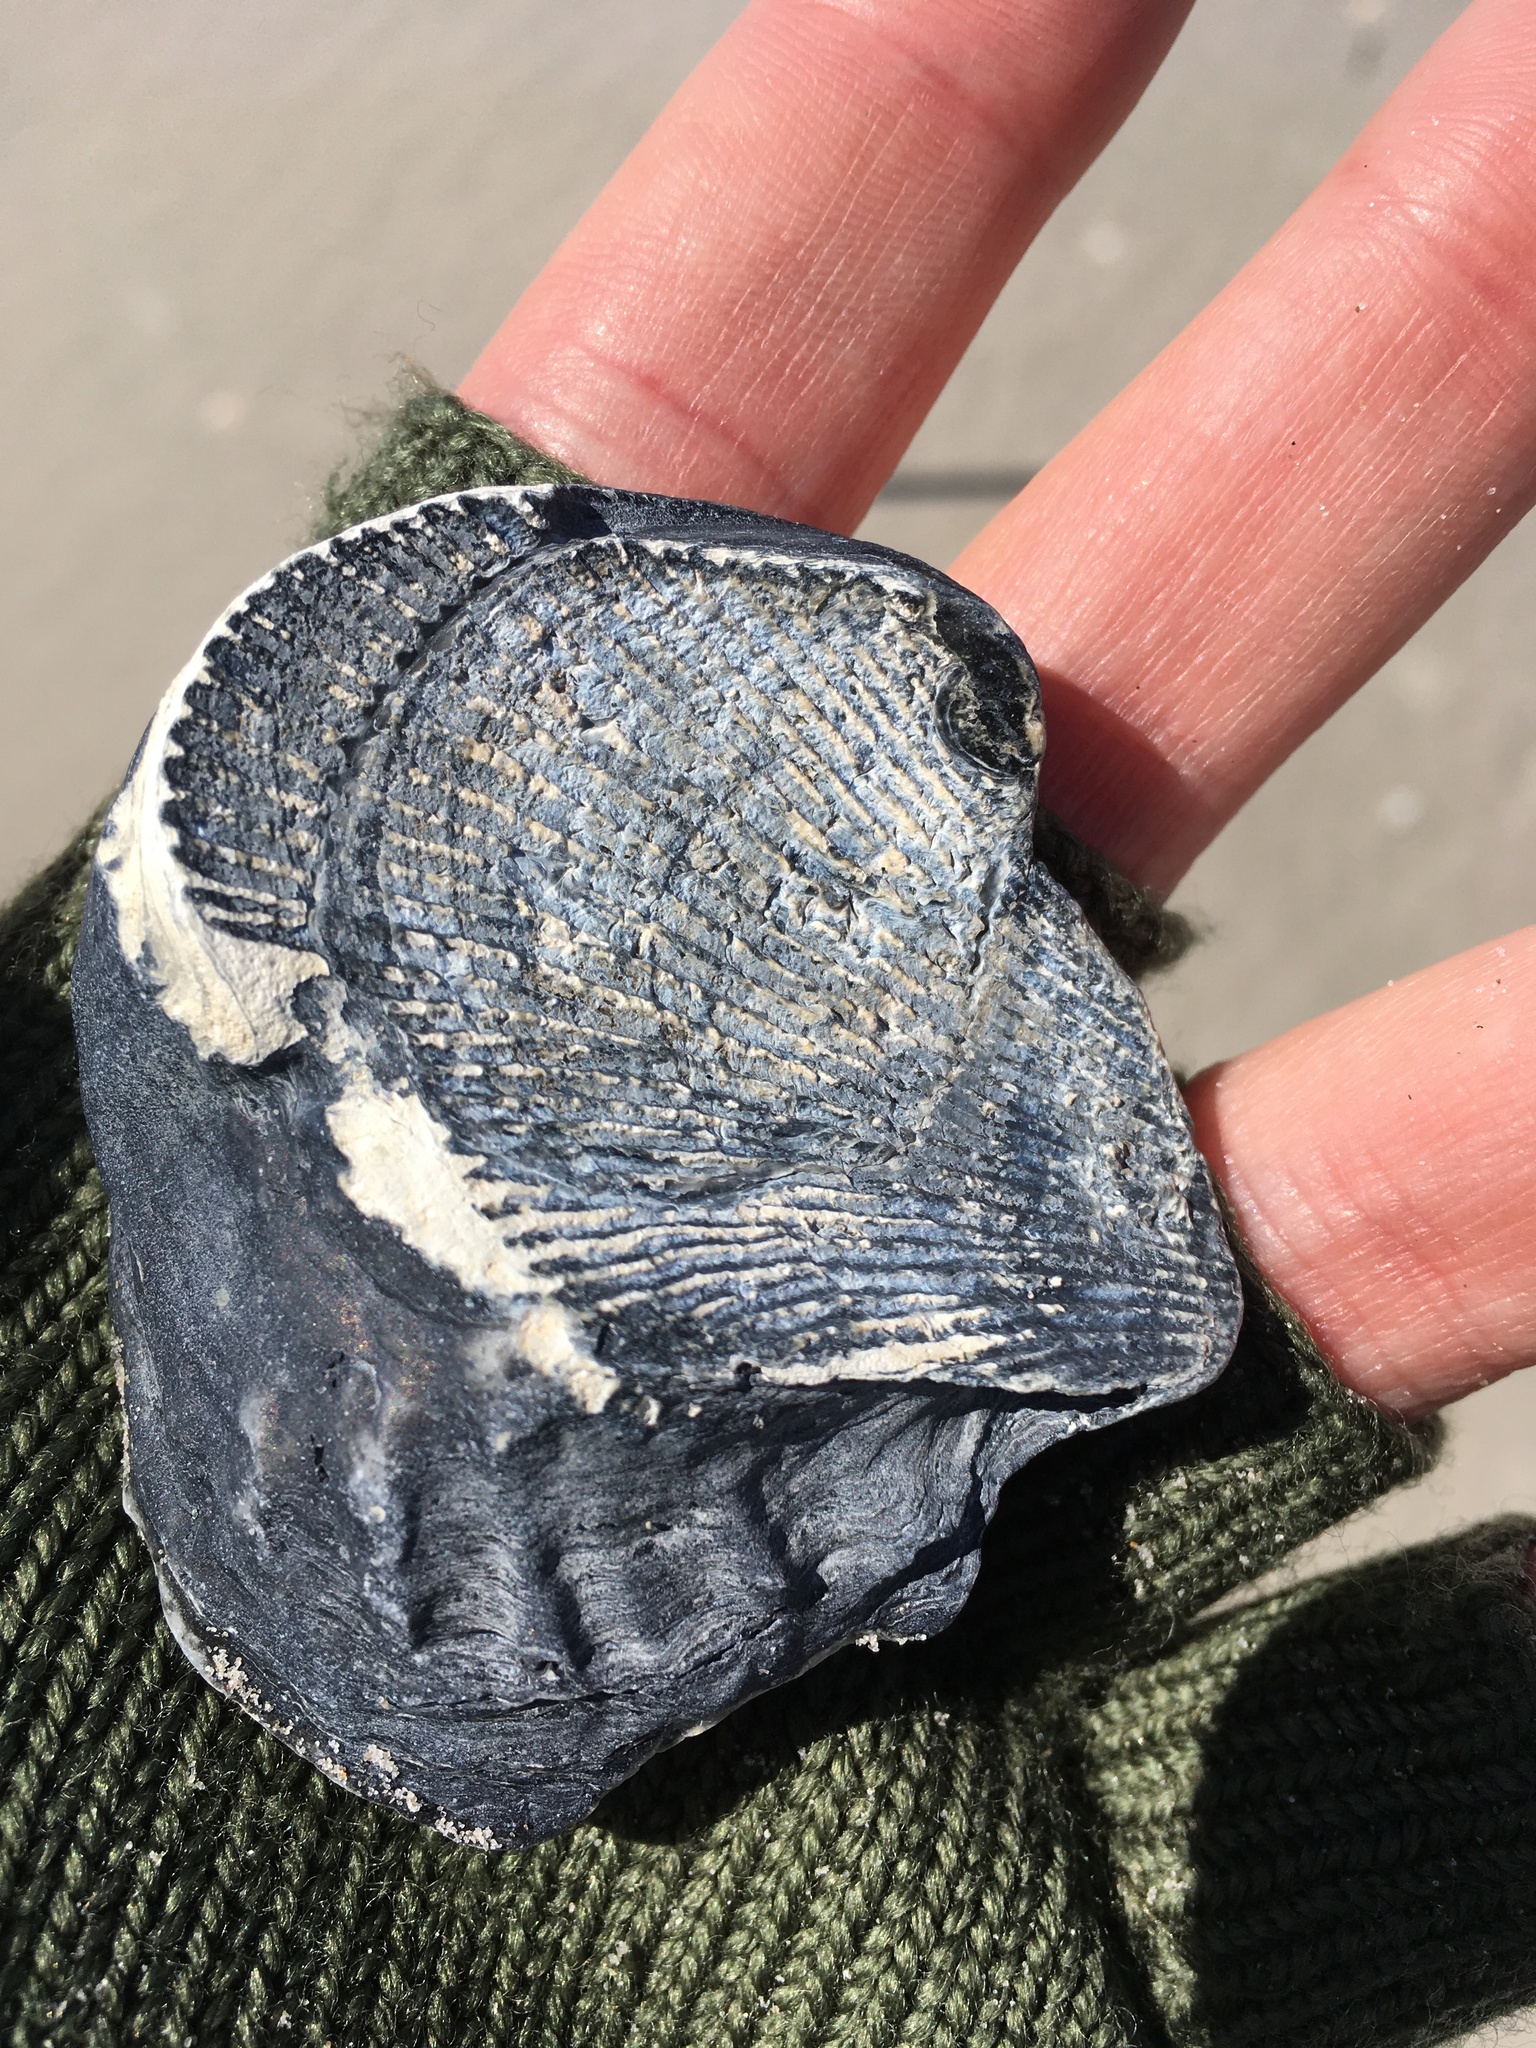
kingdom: Animalia
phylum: Mollusca
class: Bivalvia
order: Ostreida
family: Ostreidae
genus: Crassostrea
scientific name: Crassostrea virginica
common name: American oyster
